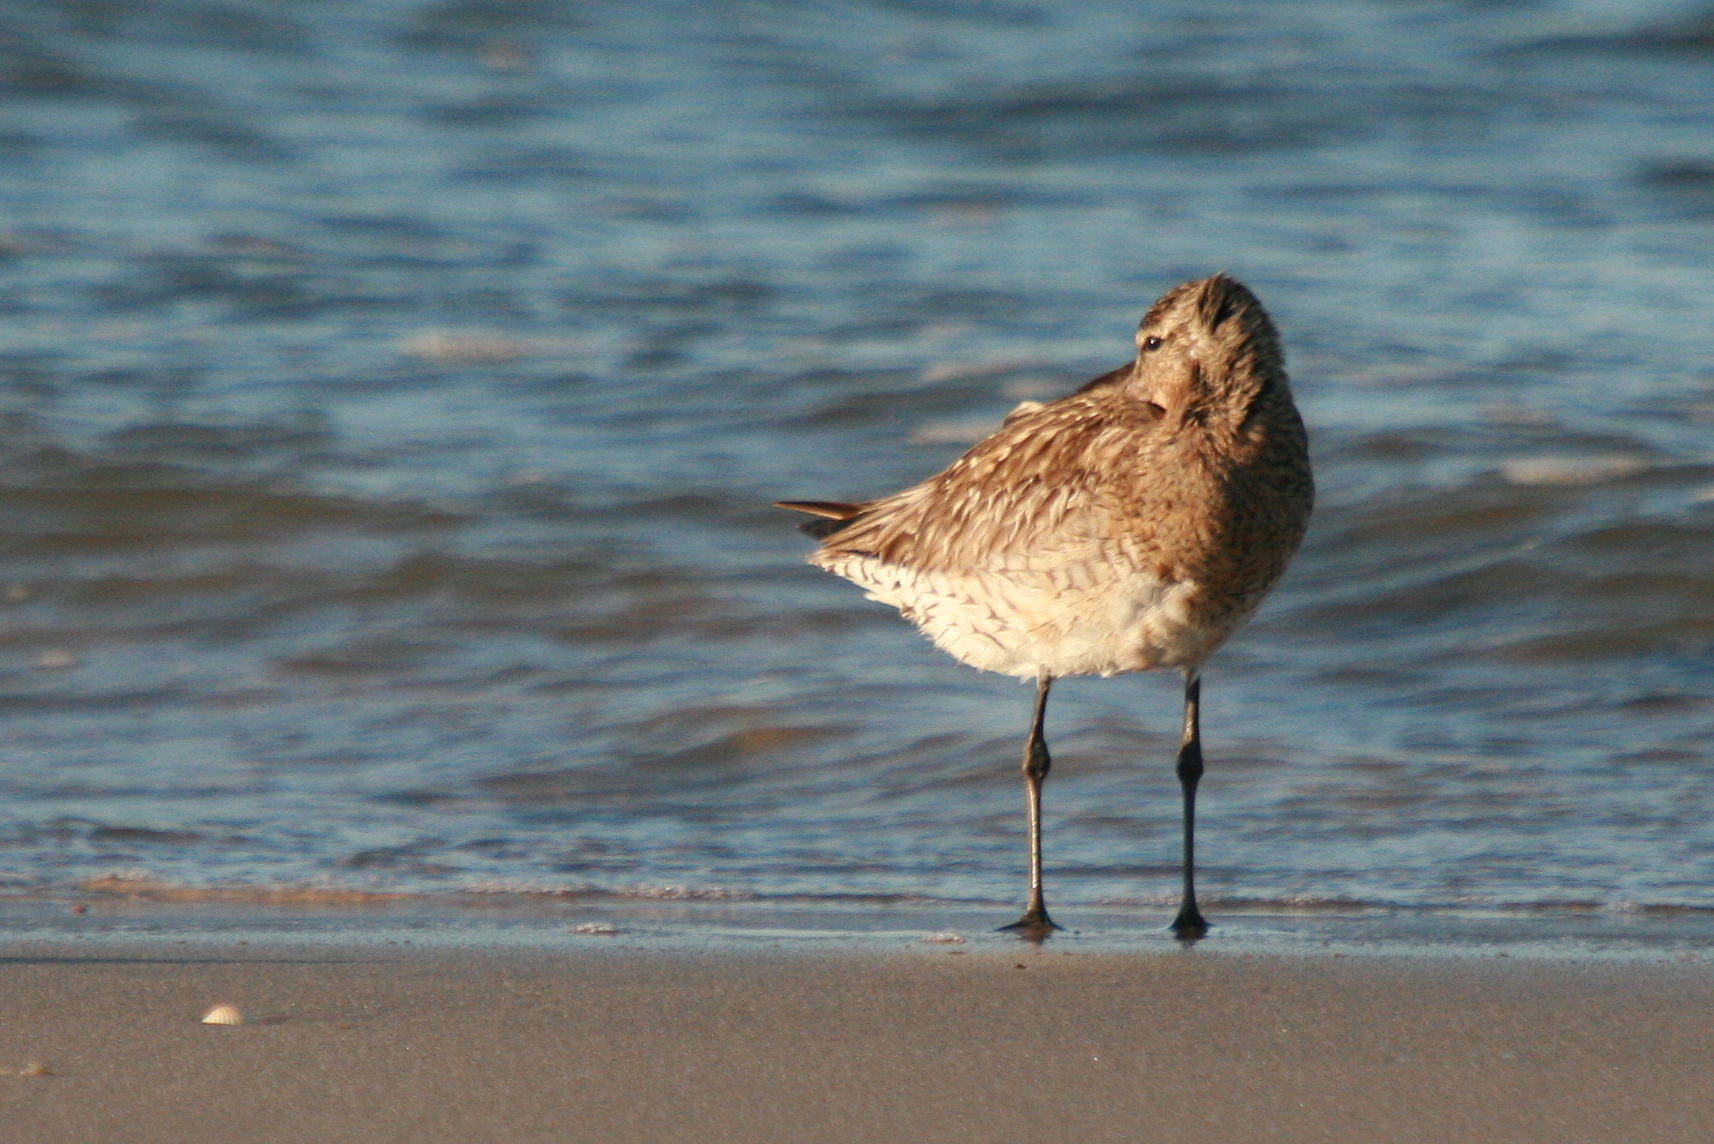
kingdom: Animalia
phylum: Chordata
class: Aves
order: Charadriiformes
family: Scolopacidae
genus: Limosa
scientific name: Limosa lapponica
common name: Bar-tailed godwit
